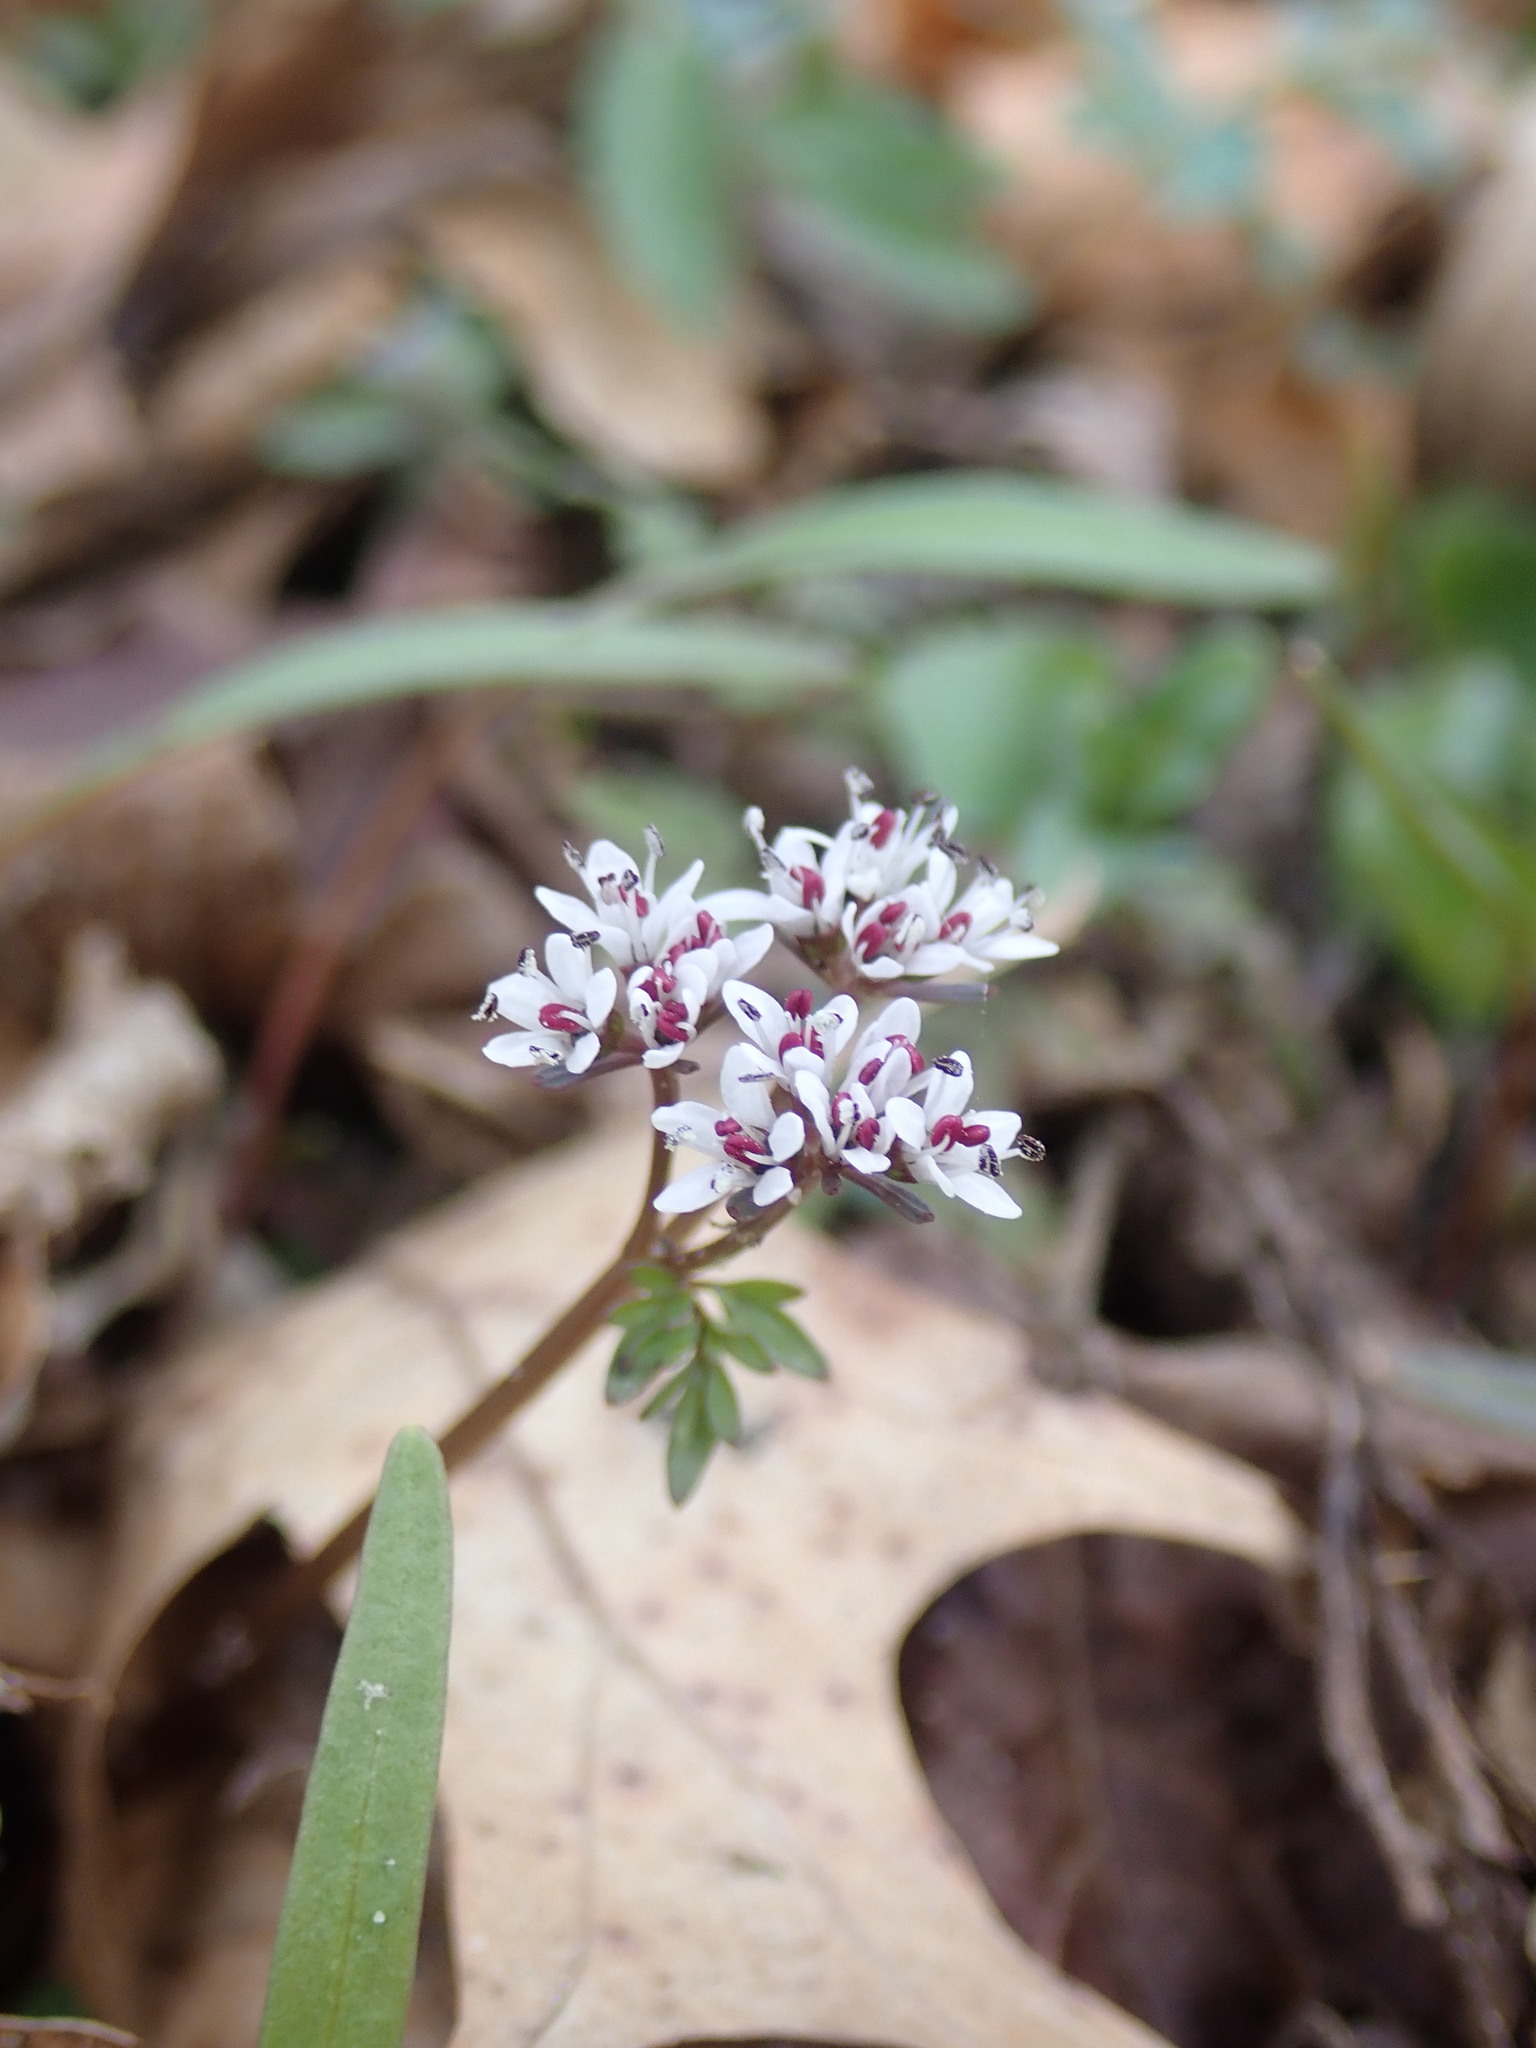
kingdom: Plantae
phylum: Tracheophyta
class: Magnoliopsida
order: Apiales
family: Apiaceae
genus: Erigenia
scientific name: Erigenia bulbosa
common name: Pepper-and-salt
